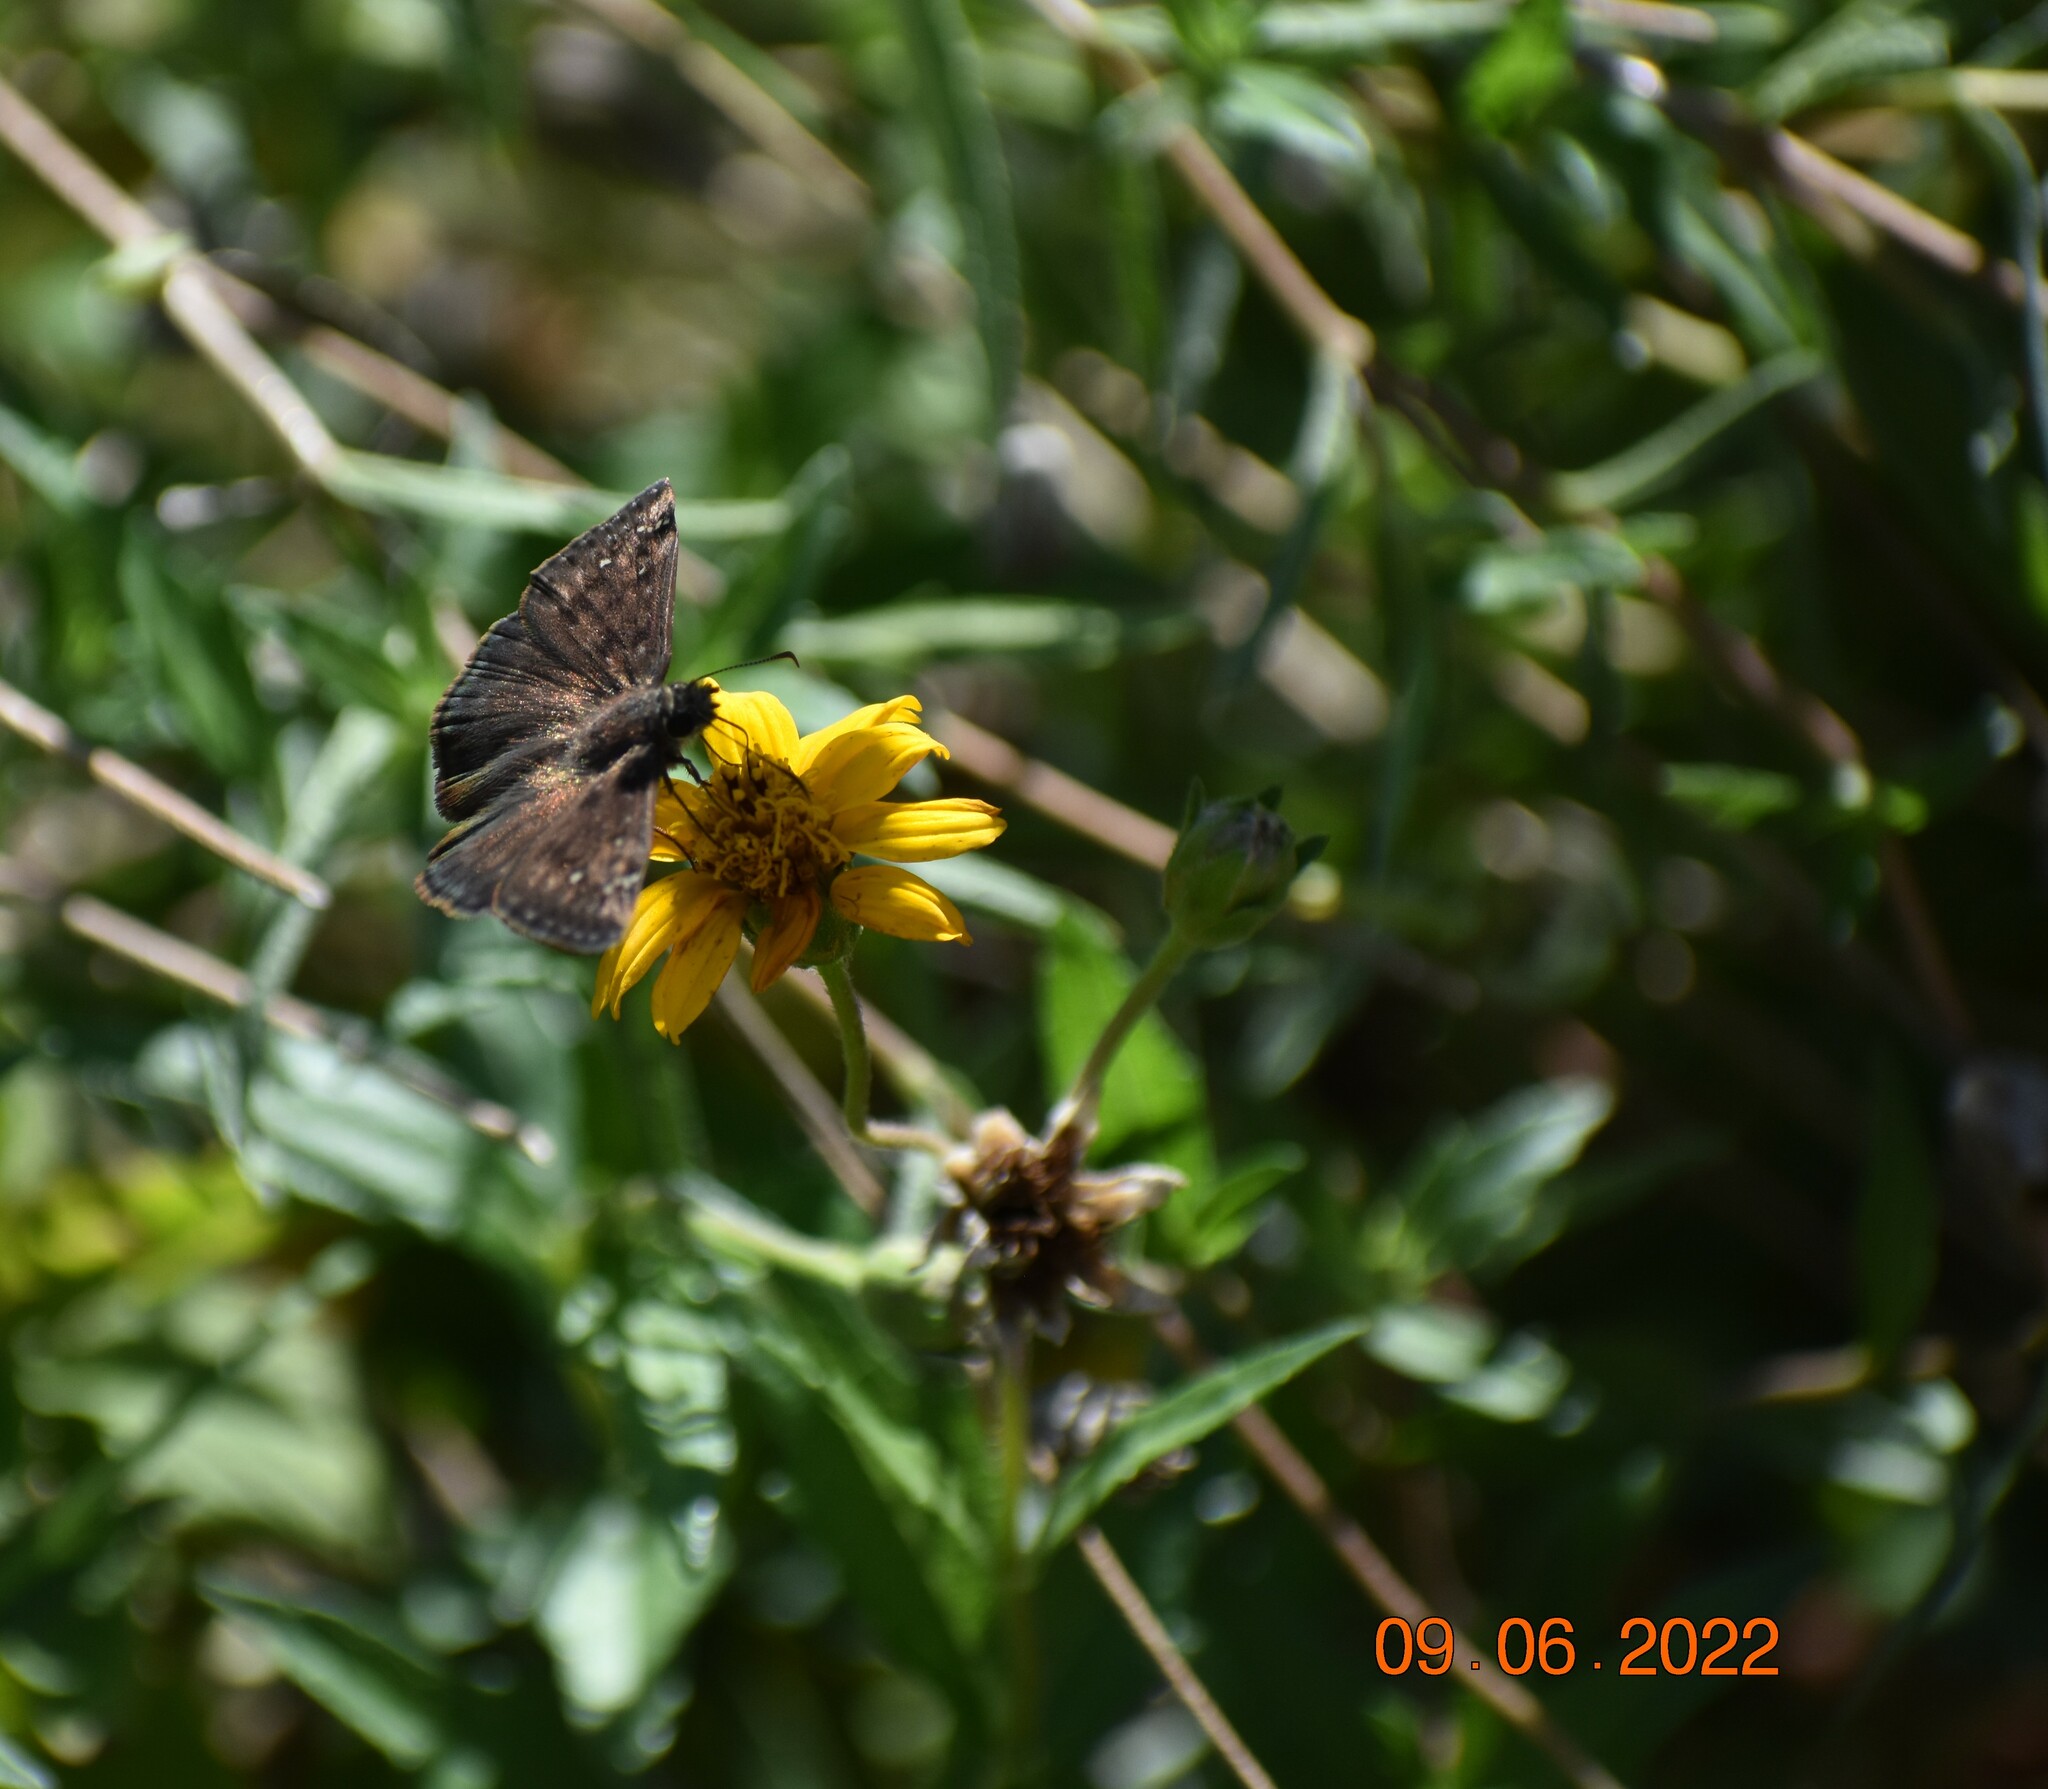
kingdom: Animalia
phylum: Arthropoda
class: Insecta
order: Lepidoptera
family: Hesperiidae
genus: Erynnis
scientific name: Erynnis baptisiae
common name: Wild indigo duskywing
